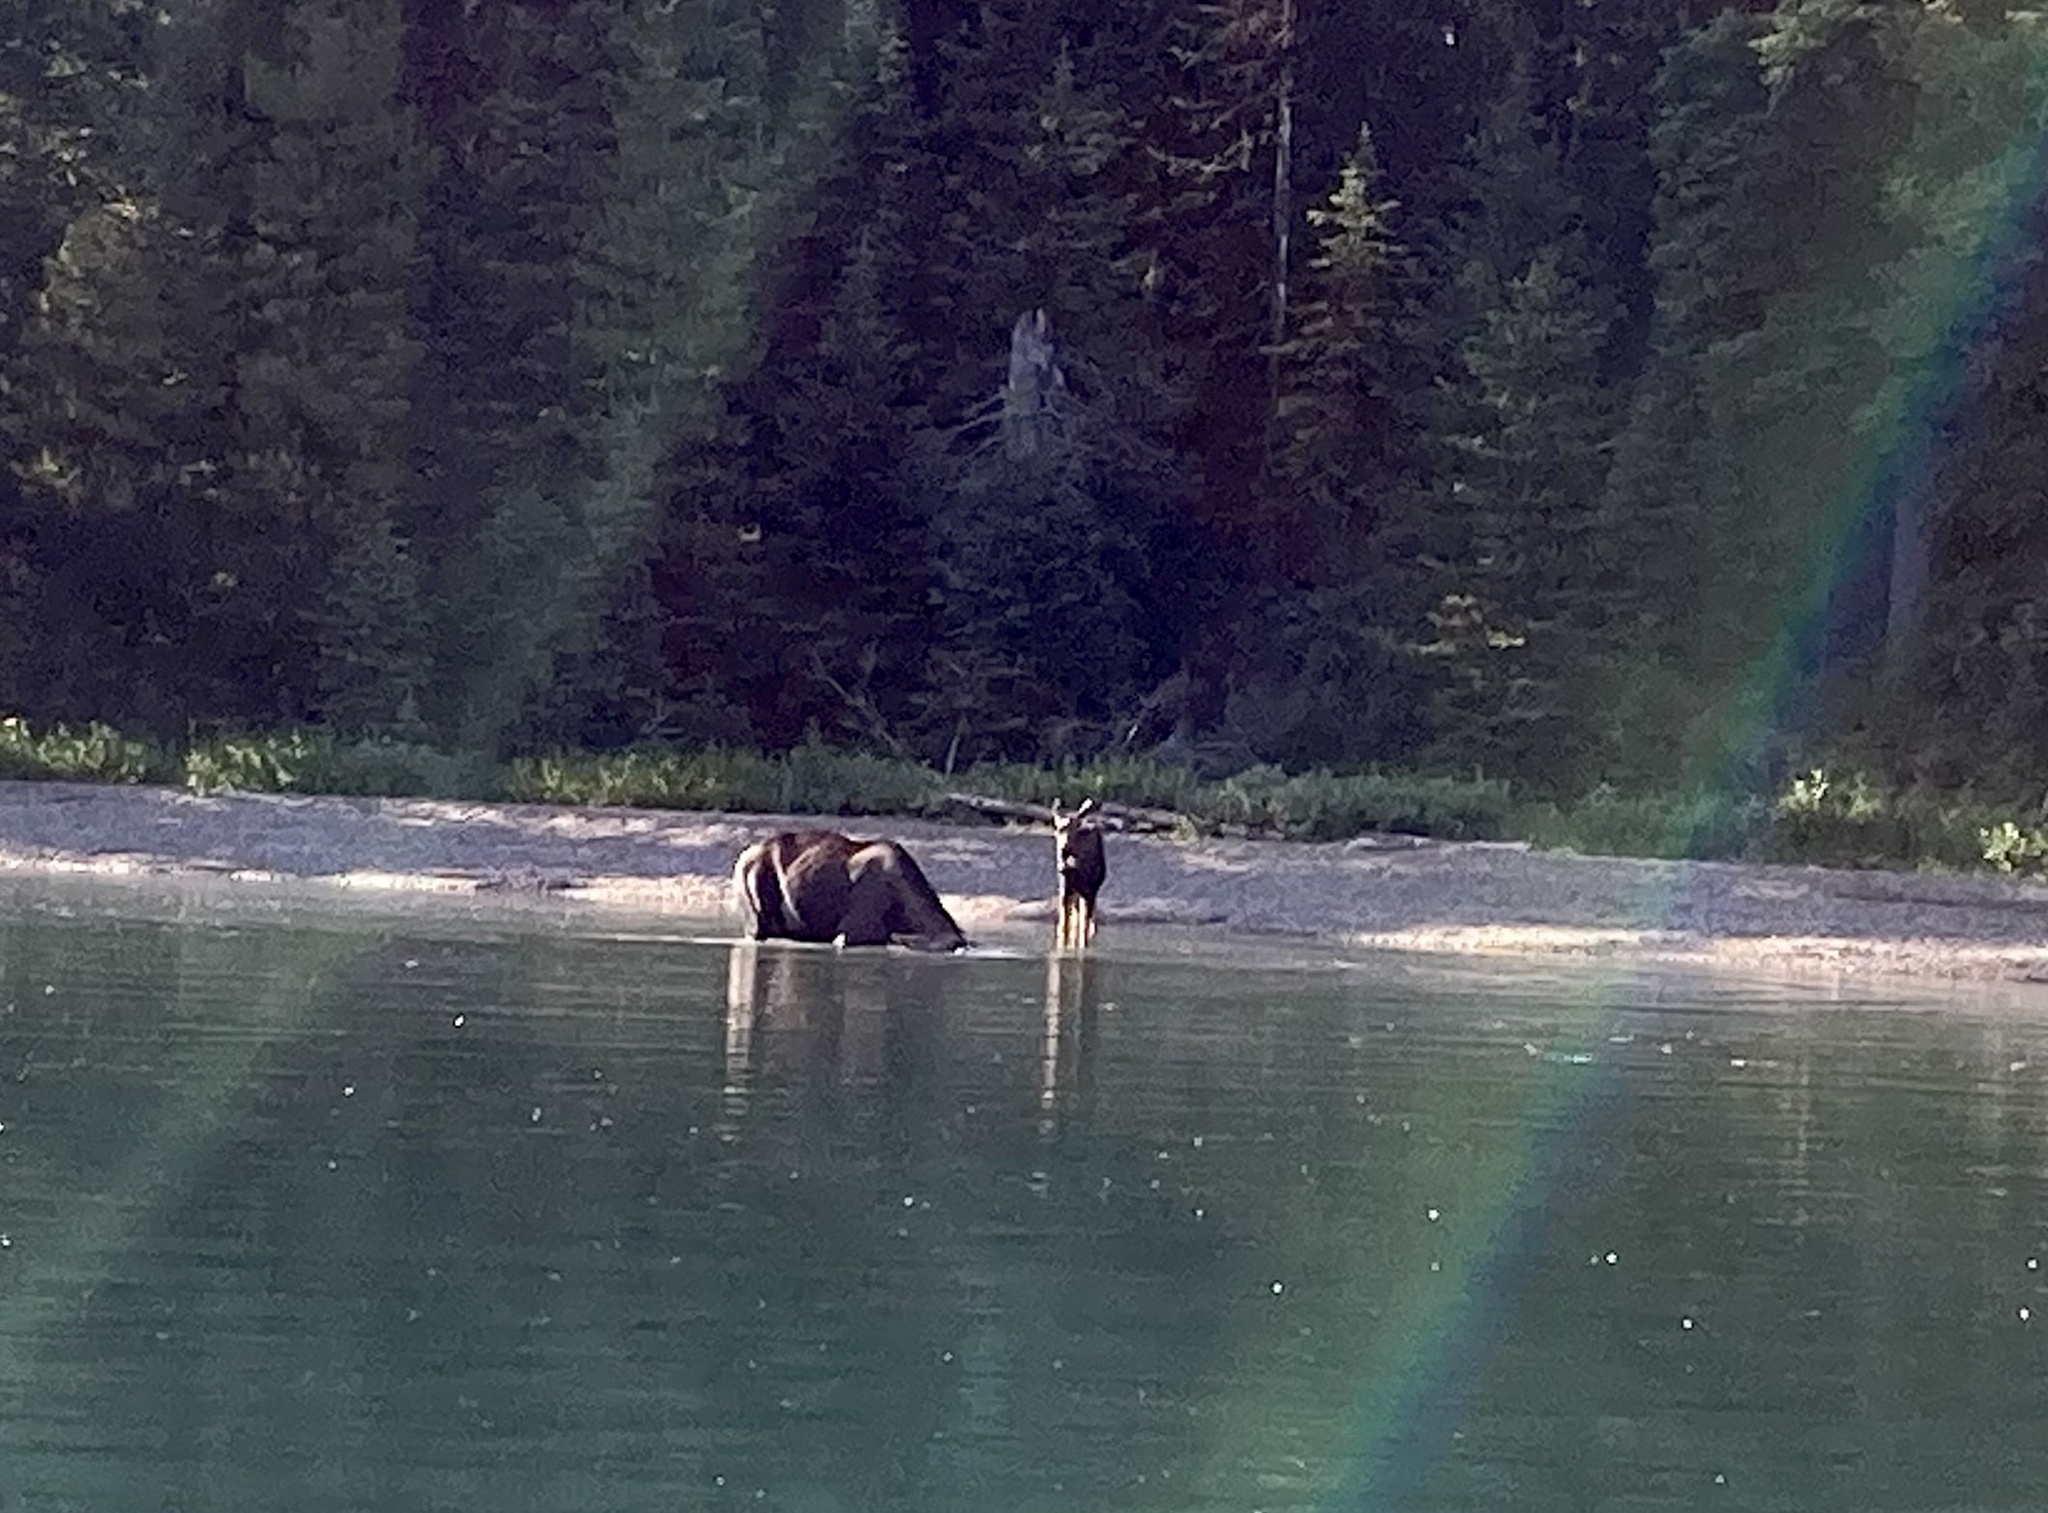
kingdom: Animalia
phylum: Chordata
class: Mammalia
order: Artiodactyla
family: Cervidae
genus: Alces
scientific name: Alces americanus
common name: Moose
